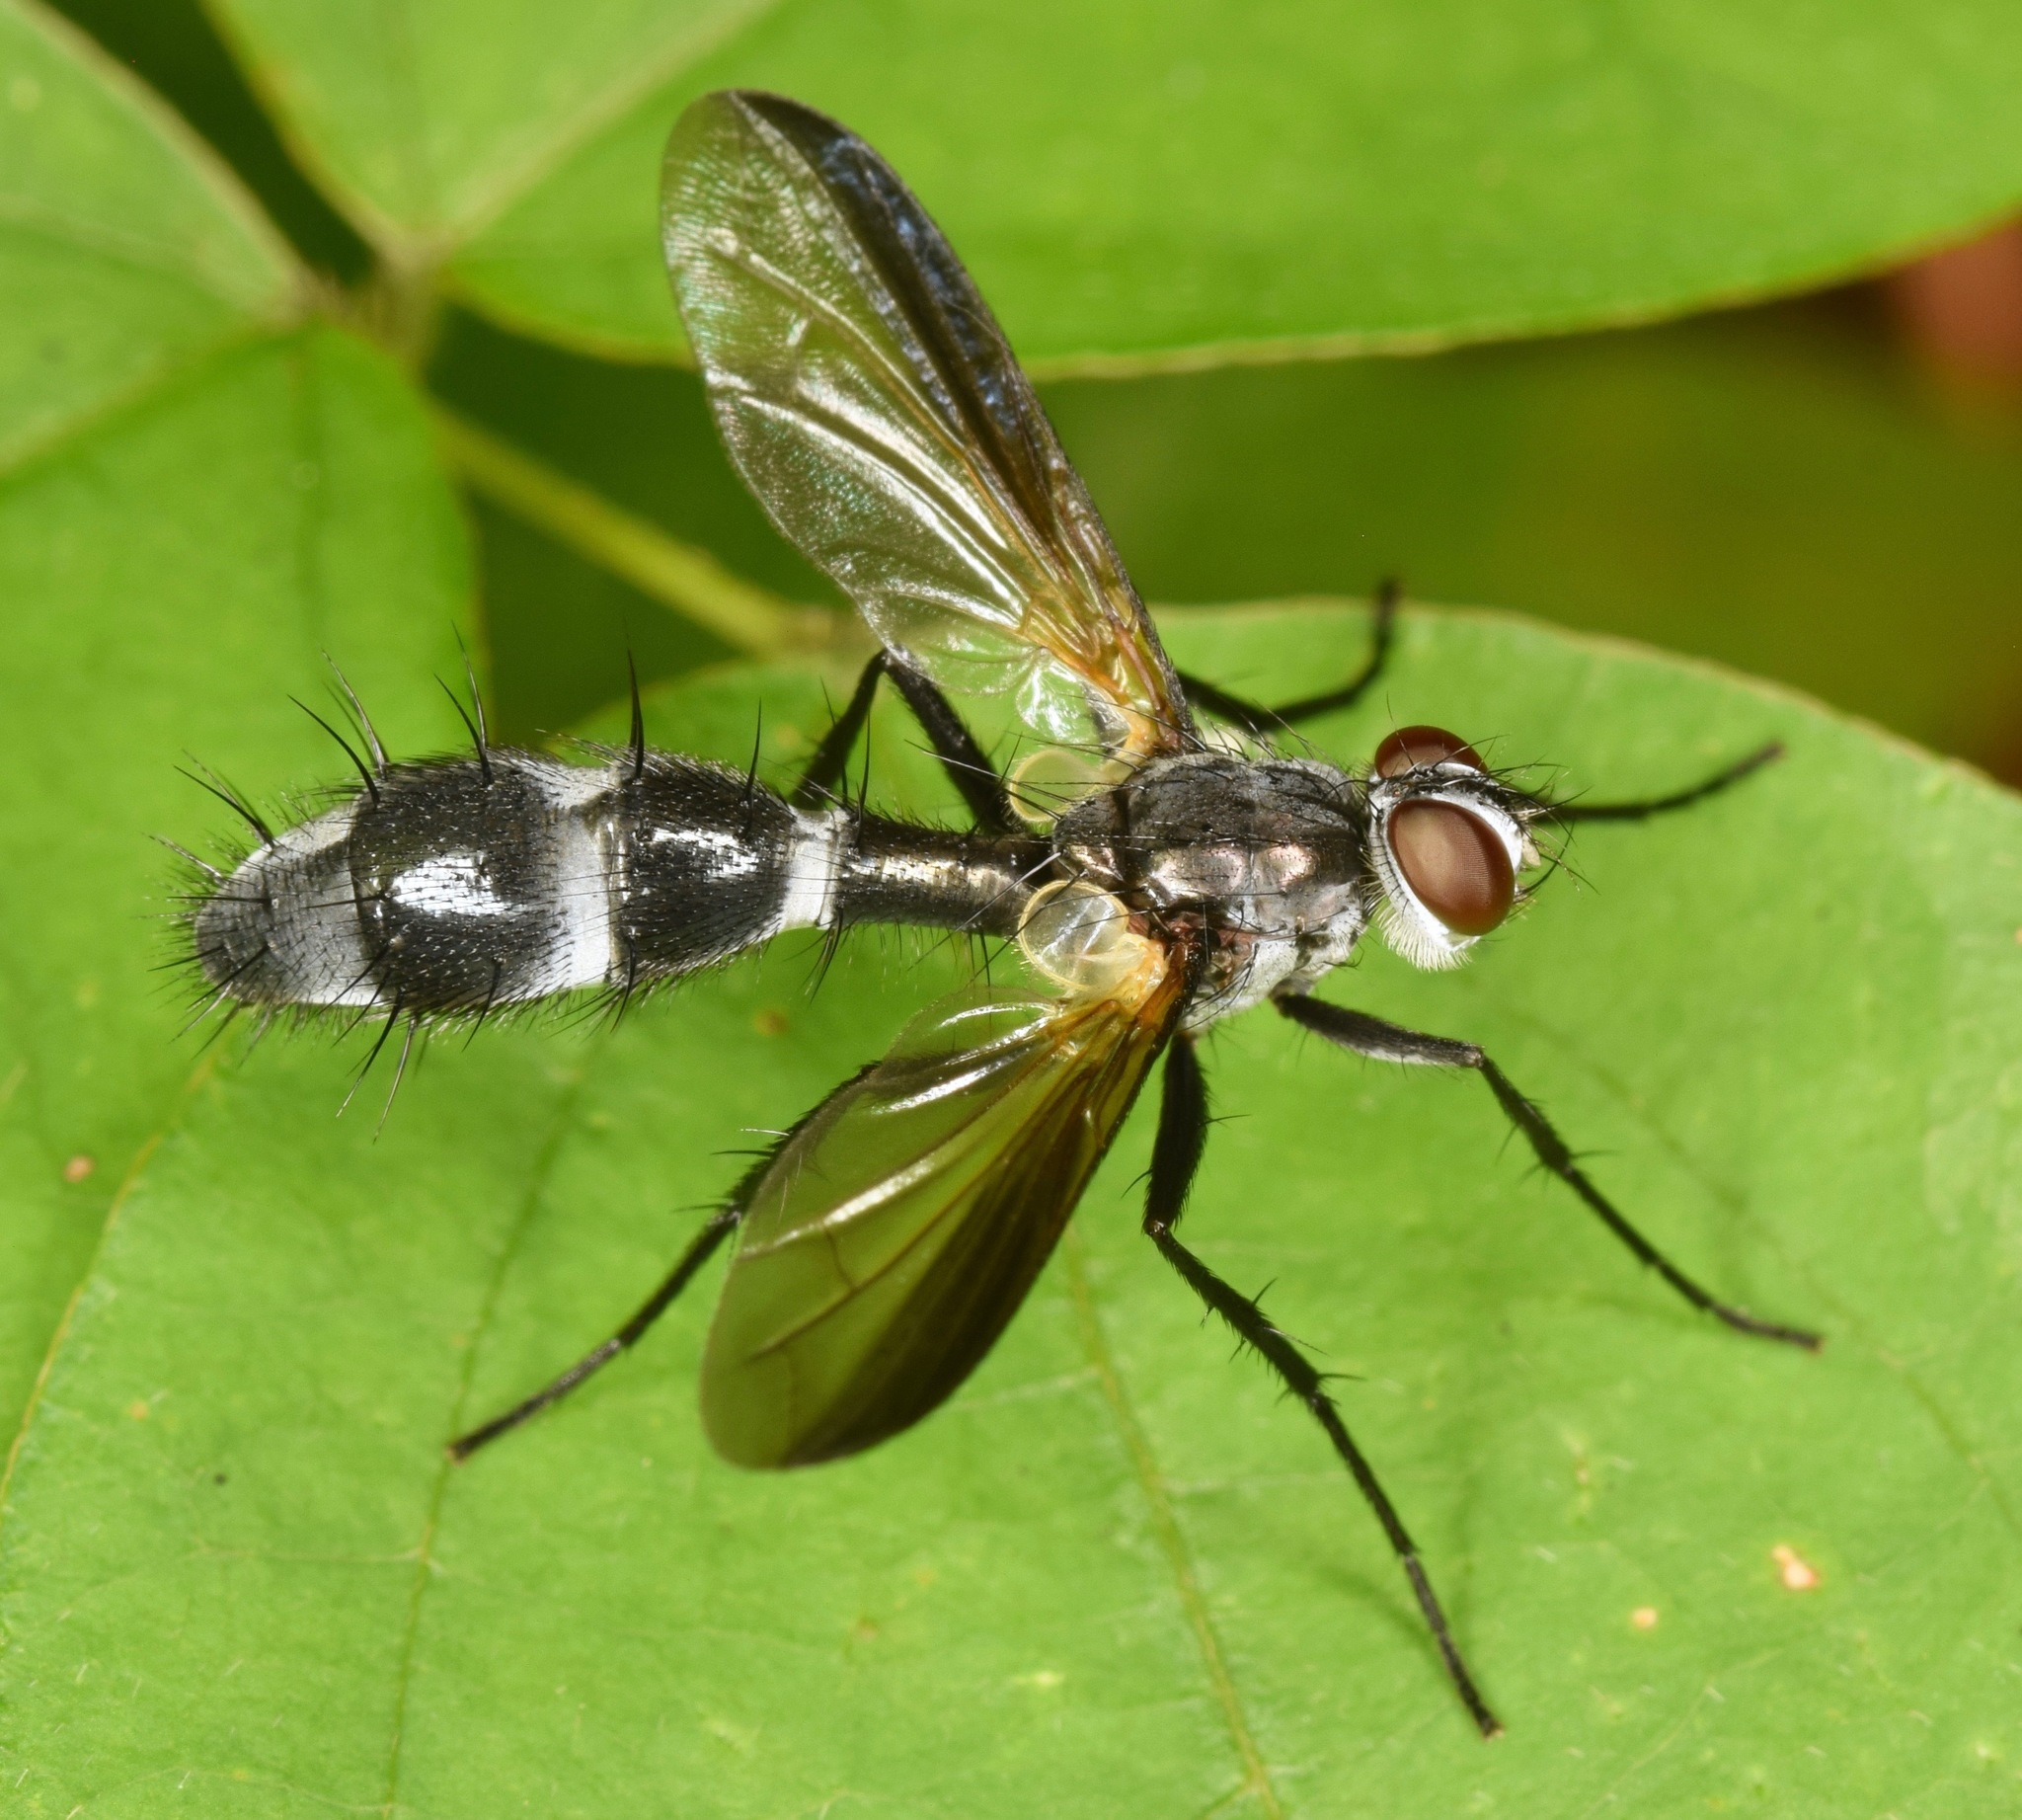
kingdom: Animalia
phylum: Arthropoda
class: Insecta
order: Diptera
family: Tachinidae
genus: Cordyligaster
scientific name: Cordyligaster septentrionalis
